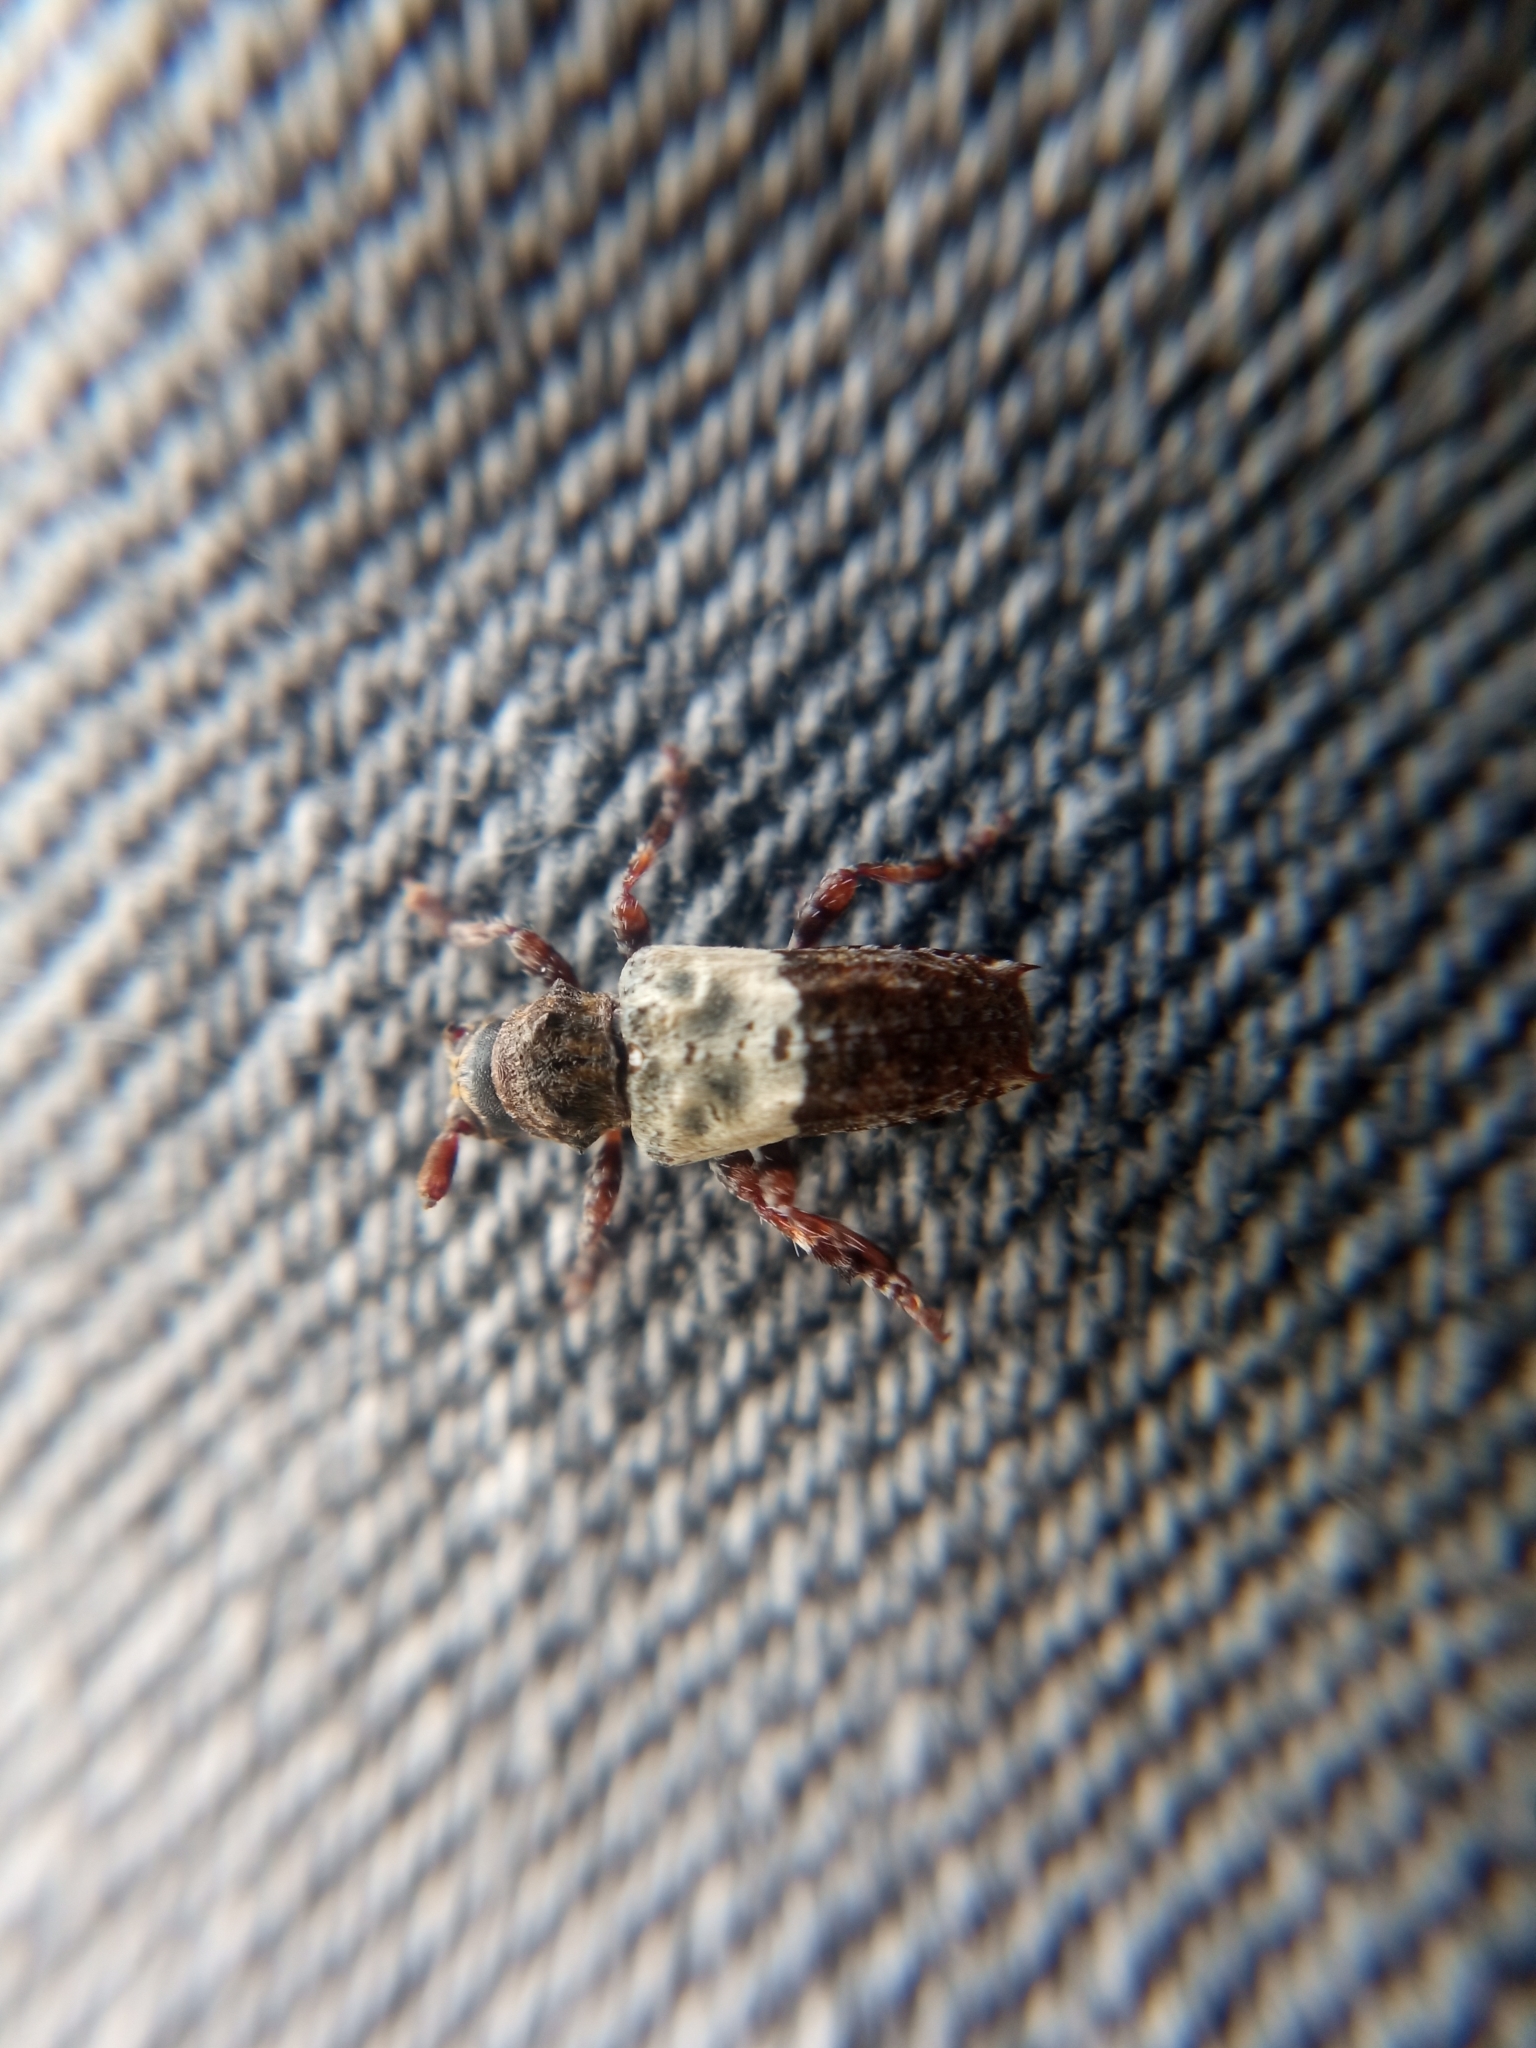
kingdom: Animalia
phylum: Arthropoda
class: Insecta
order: Coleoptera
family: Cerambycidae
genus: Pogonocherus
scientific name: Pogonocherus hispidulus
